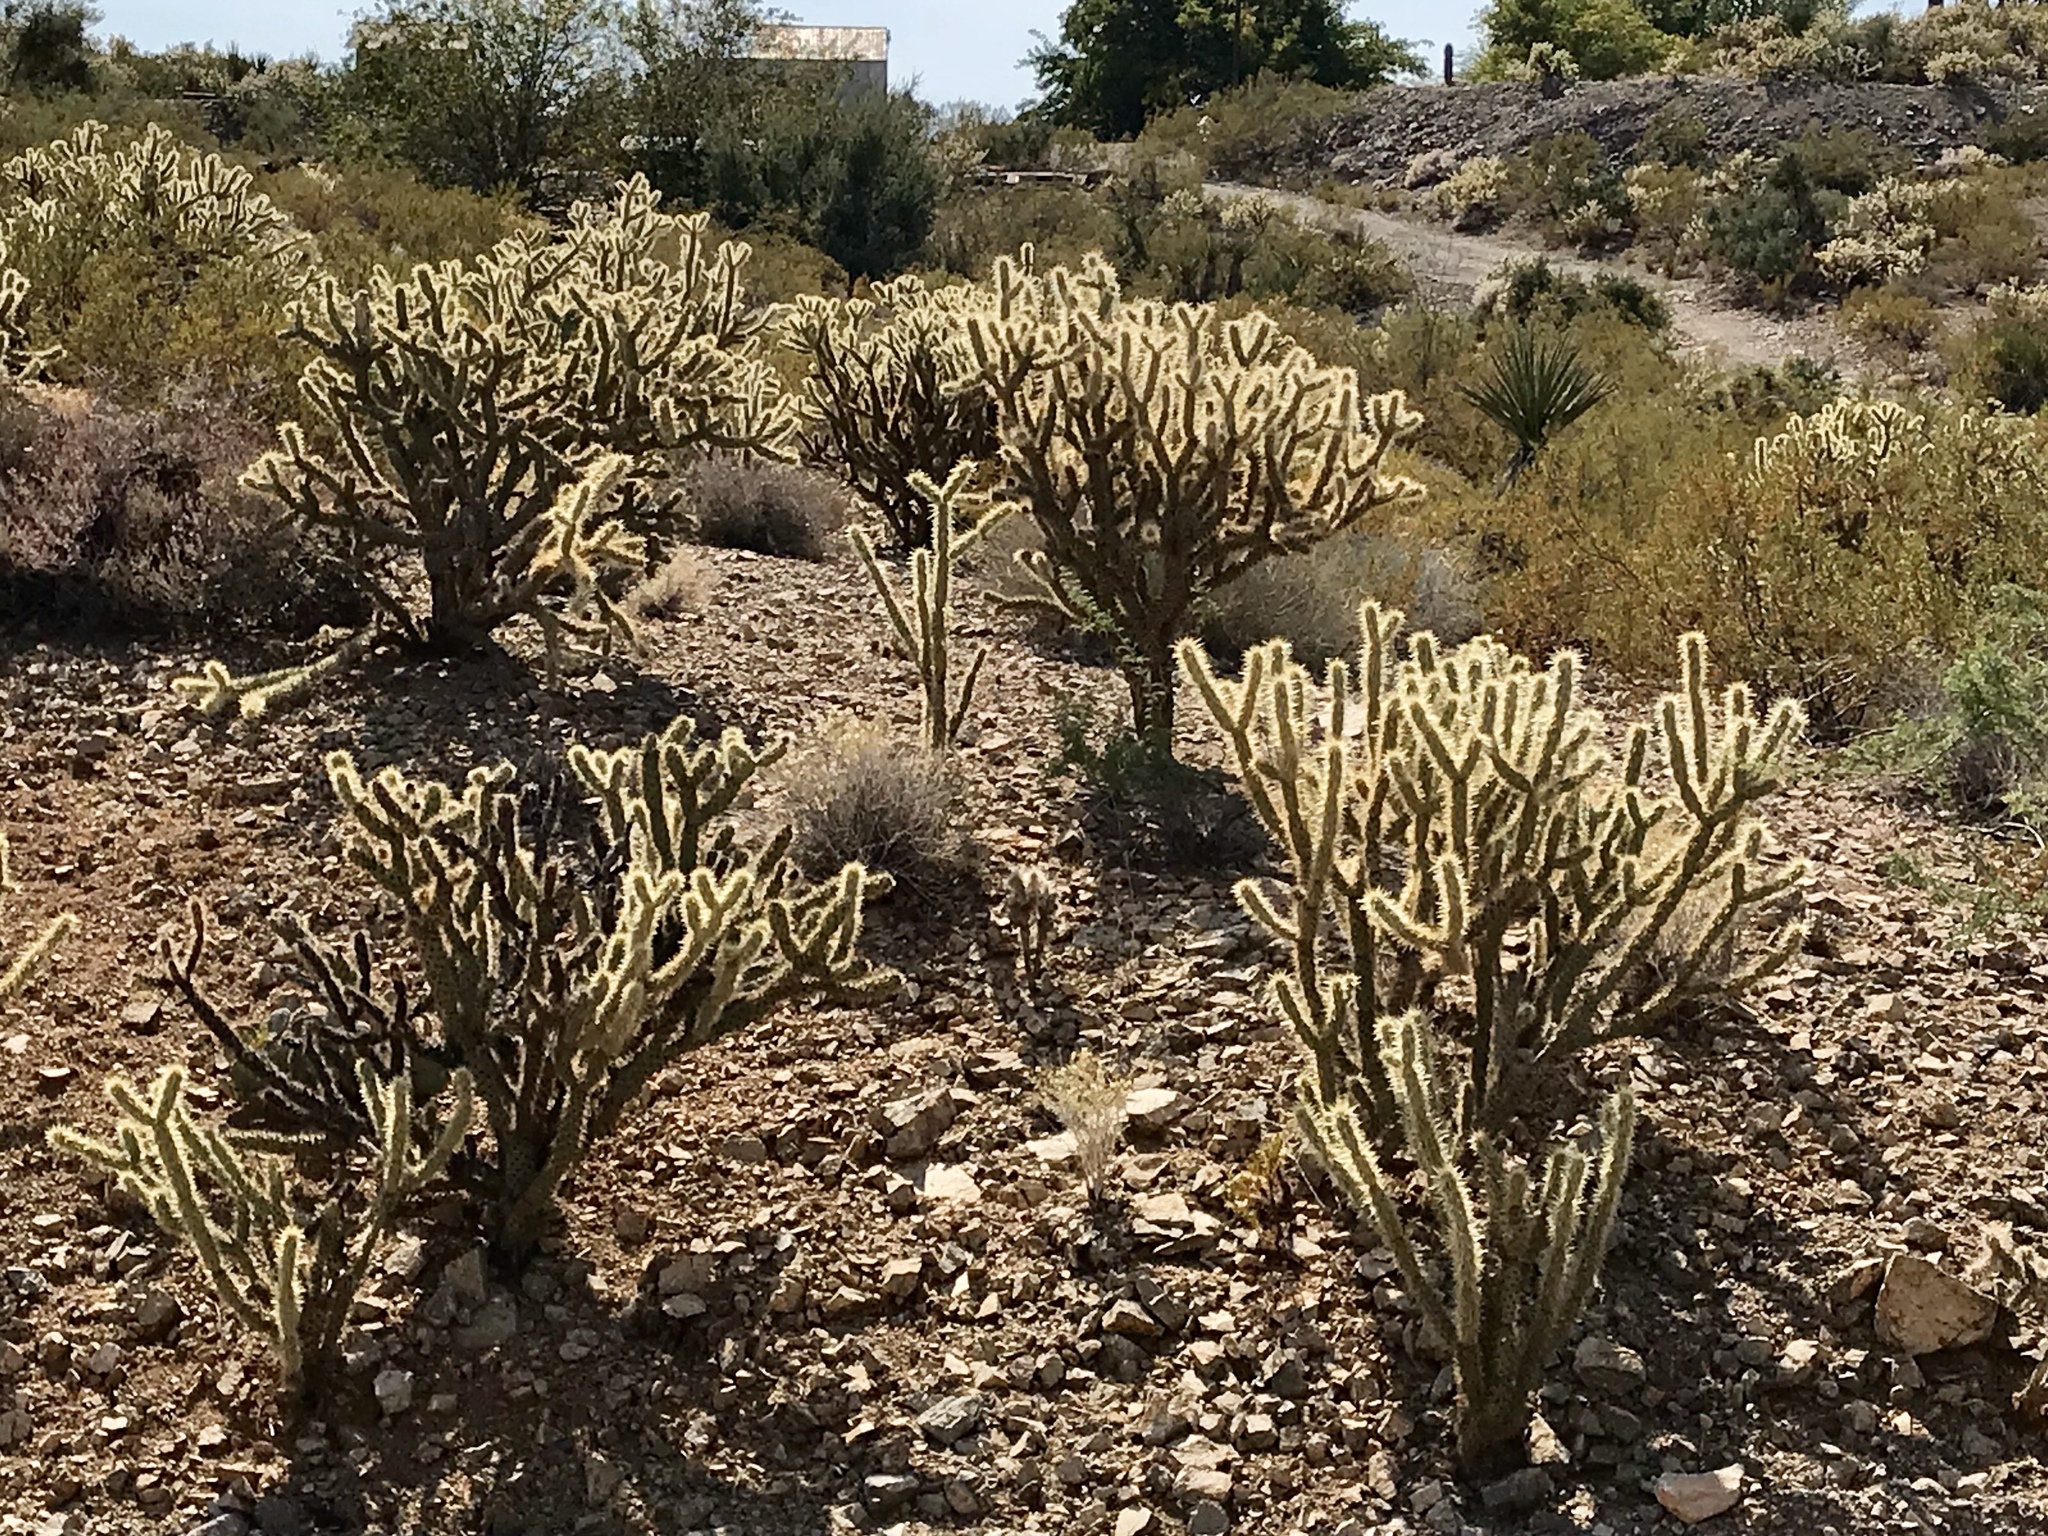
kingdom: Plantae
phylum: Tracheophyta
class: Magnoliopsida
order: Caryophyllales
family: Cactaceae
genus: Cylindropuntia
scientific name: Cylindropuntia acanthocarpa
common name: Buckhorn cholla
